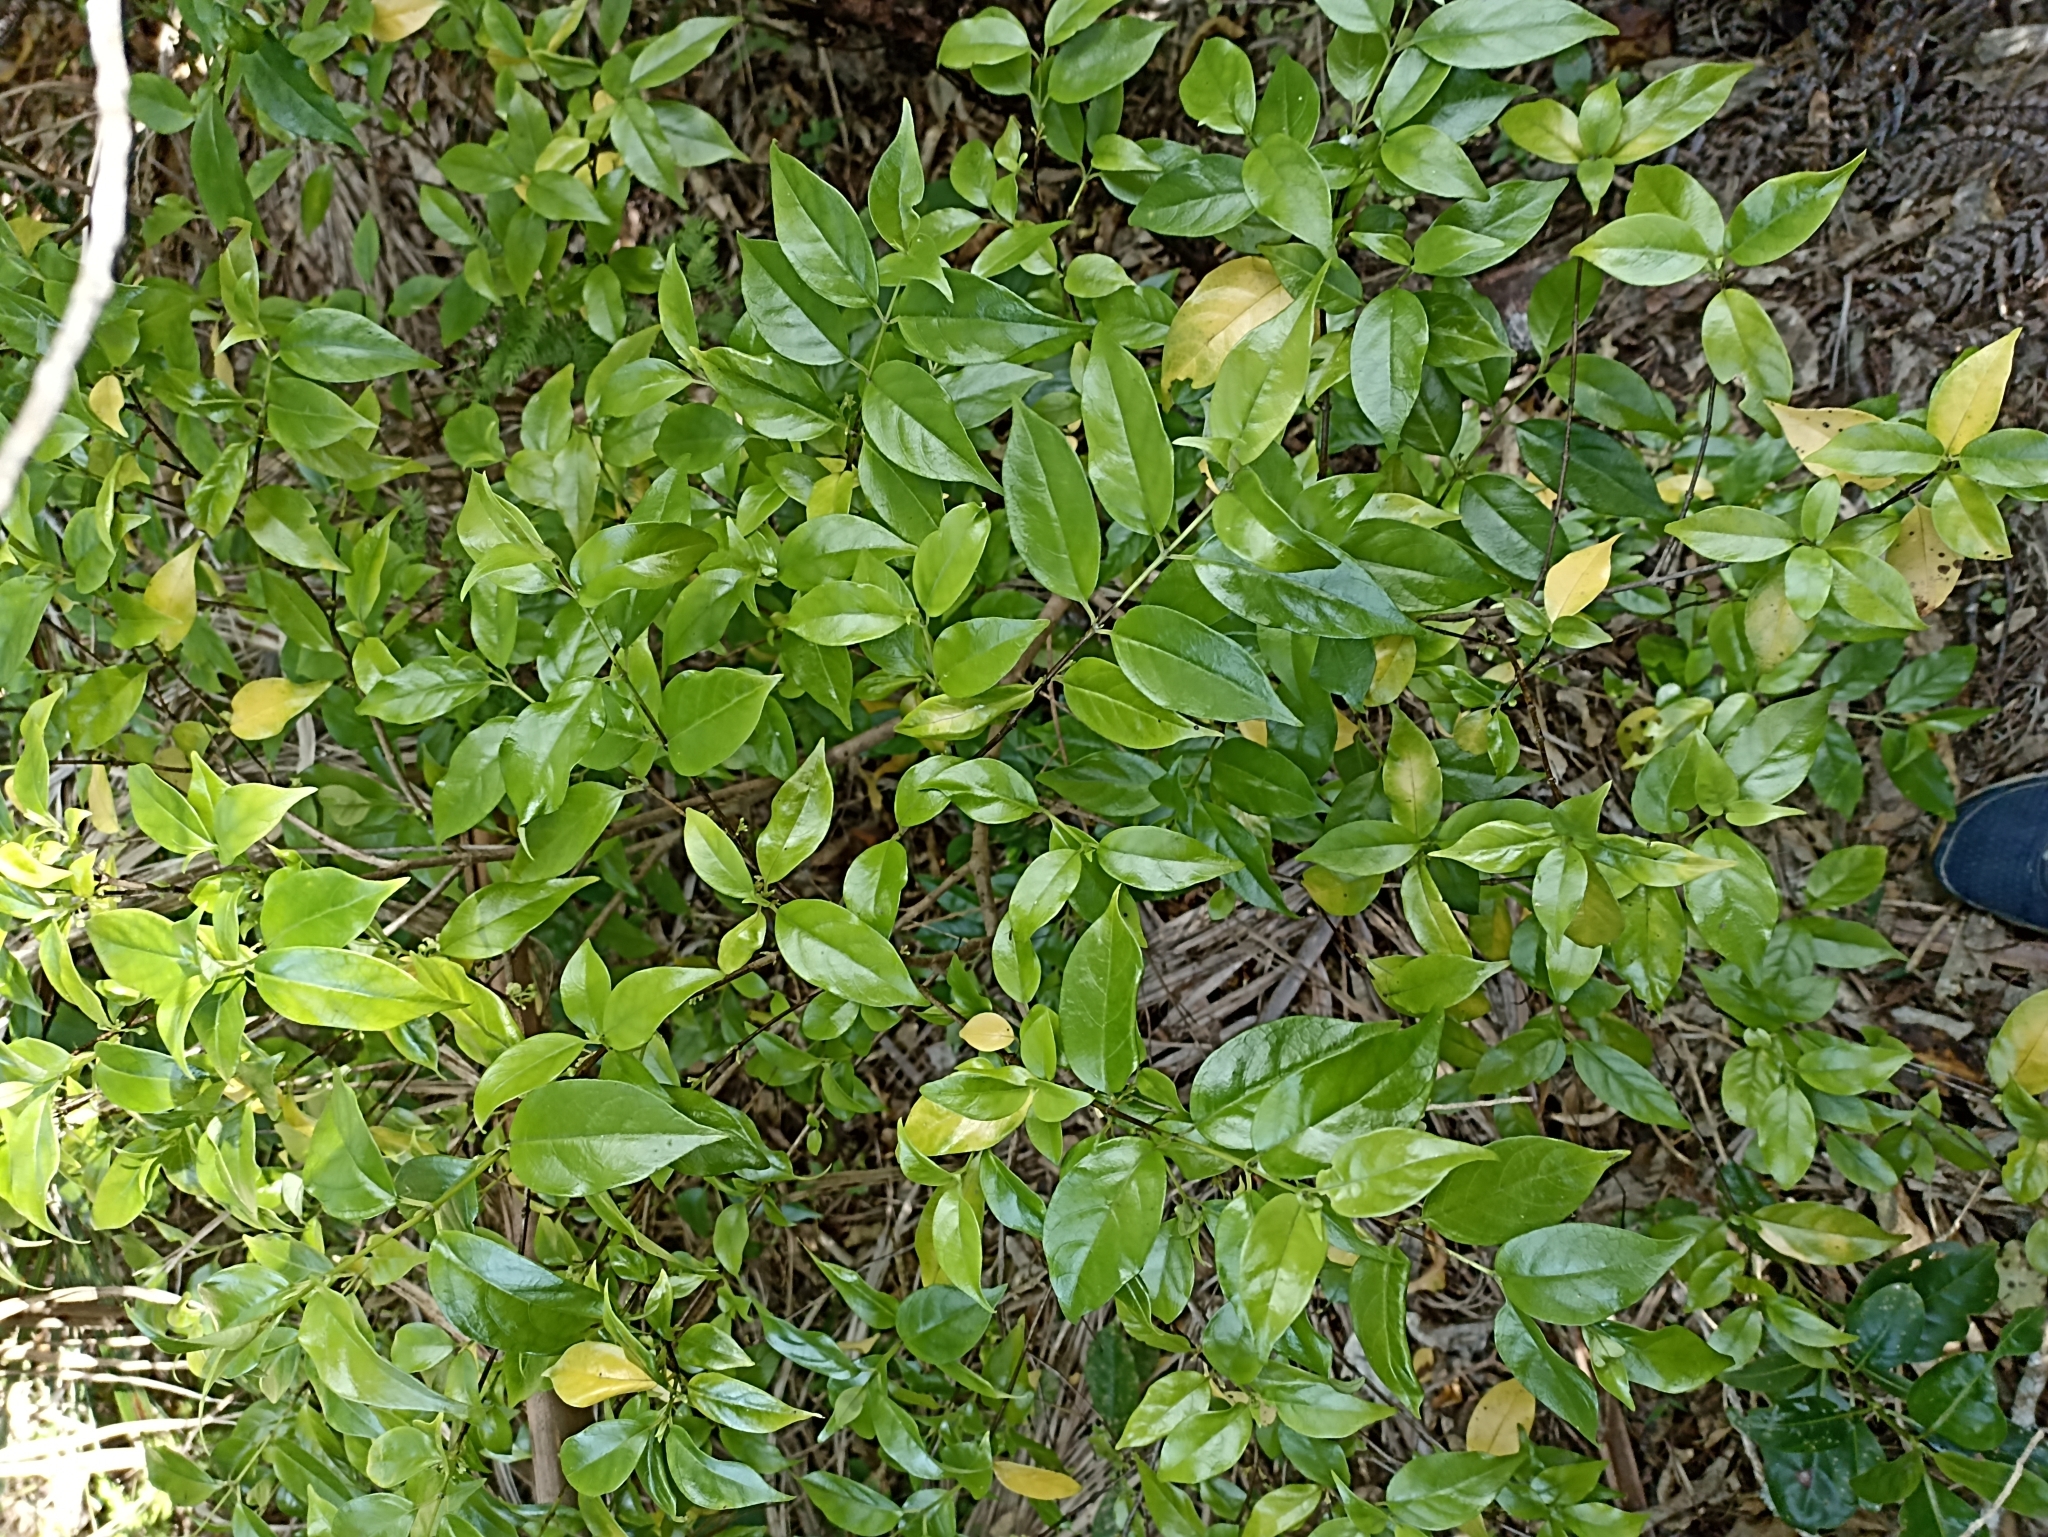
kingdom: Plantae
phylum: Tracheophyta
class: Magnoliopsida
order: Gentianales
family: Loganiaceae
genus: Geniostoma
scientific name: Geniostoma ligustrifolium
